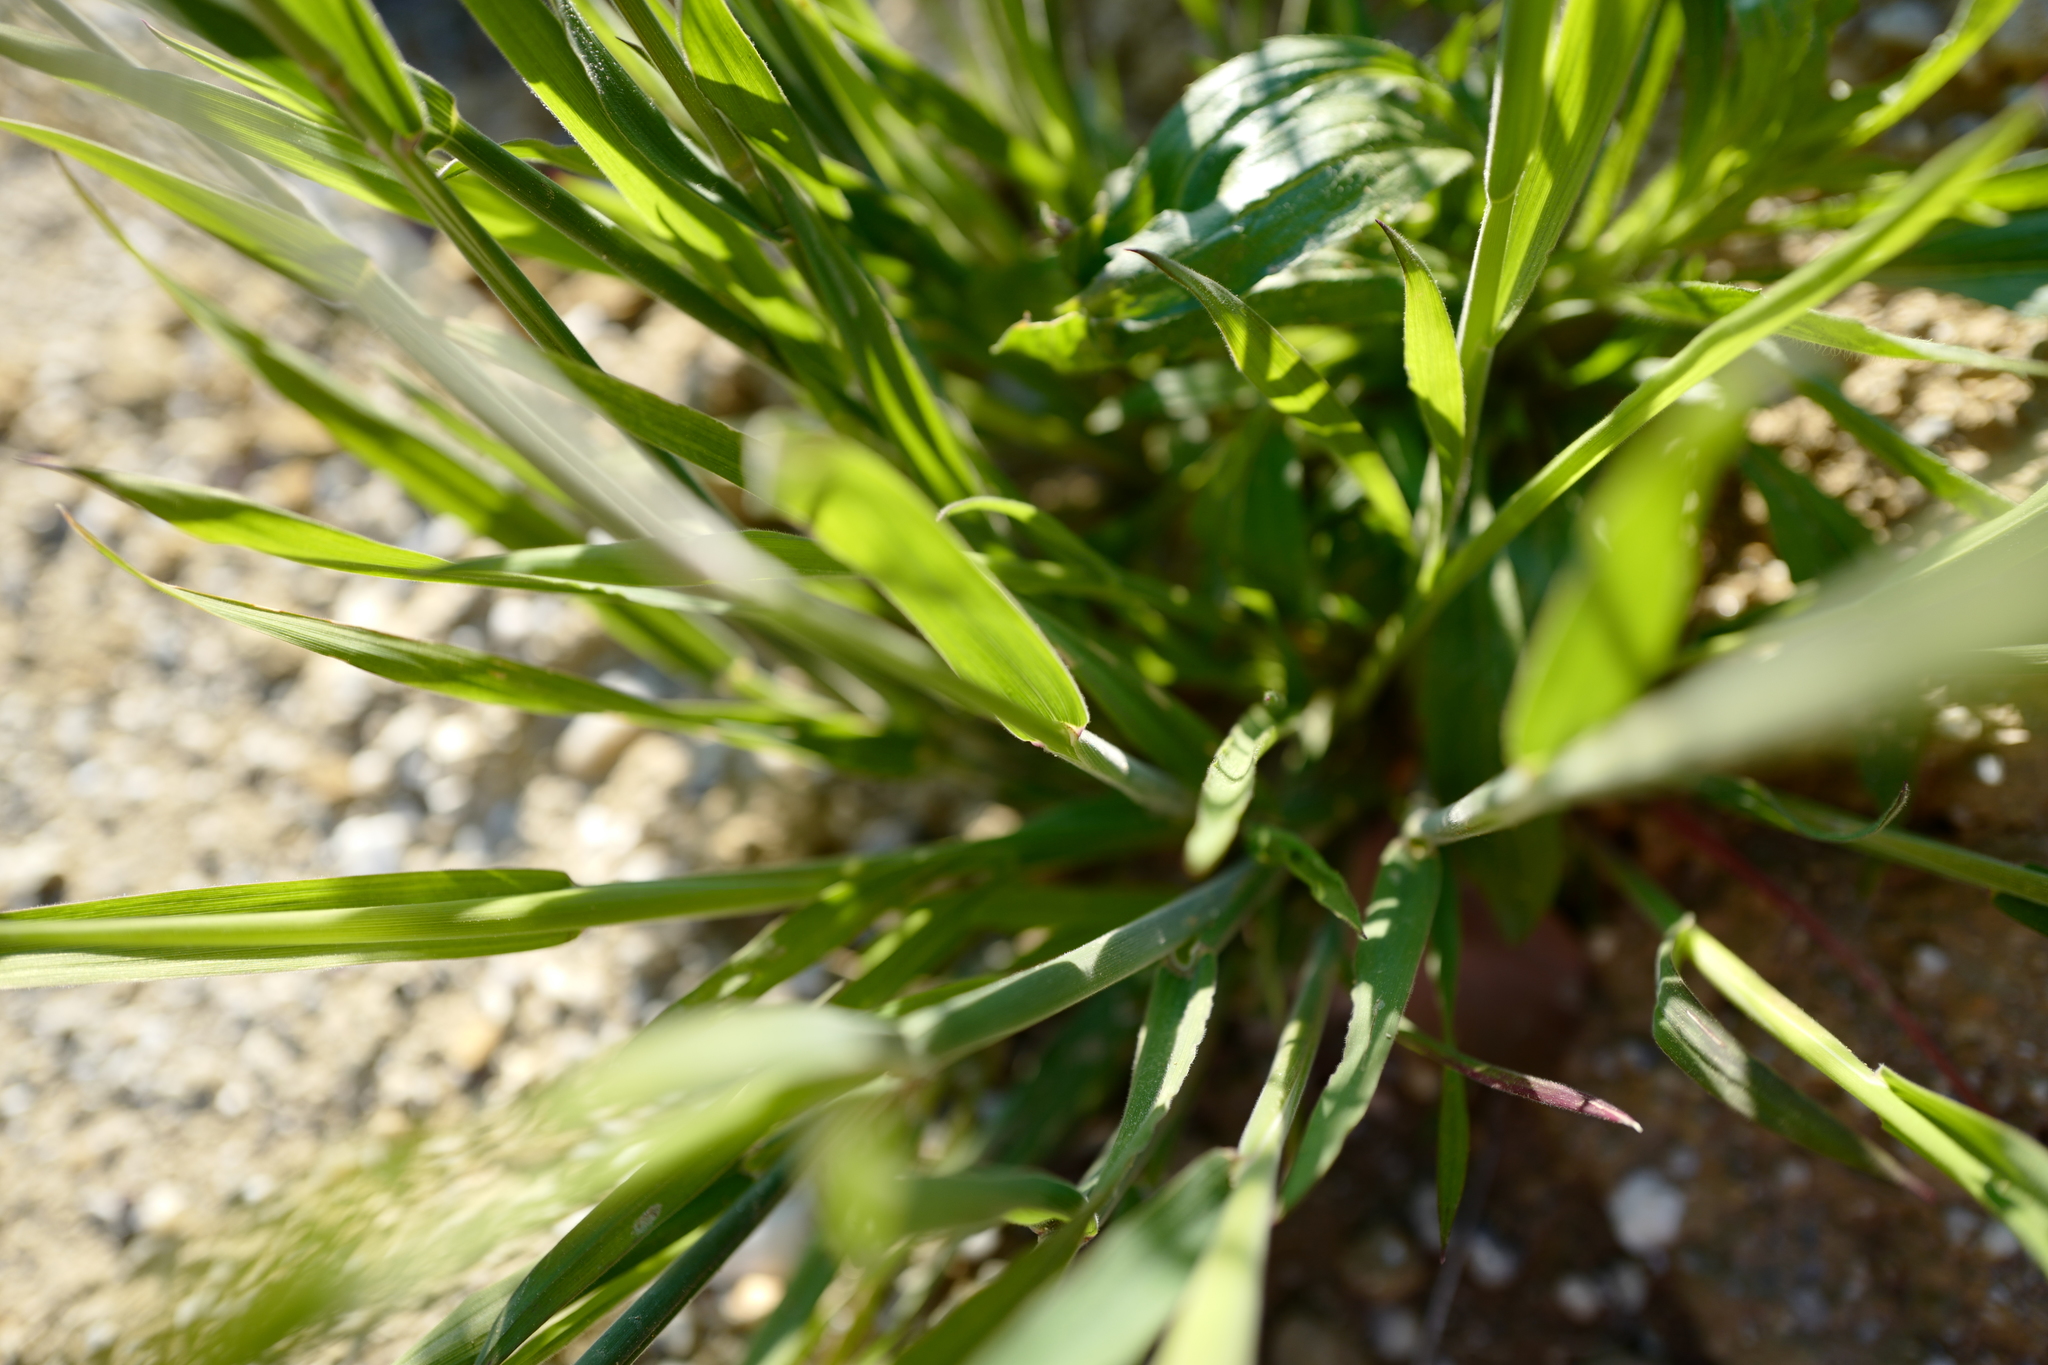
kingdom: Plantae
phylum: Tracheophyta
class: Liliopsida
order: Poales
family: Poaceae
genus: Holcus
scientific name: Holcus lanatus
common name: Yorkshire-fog
